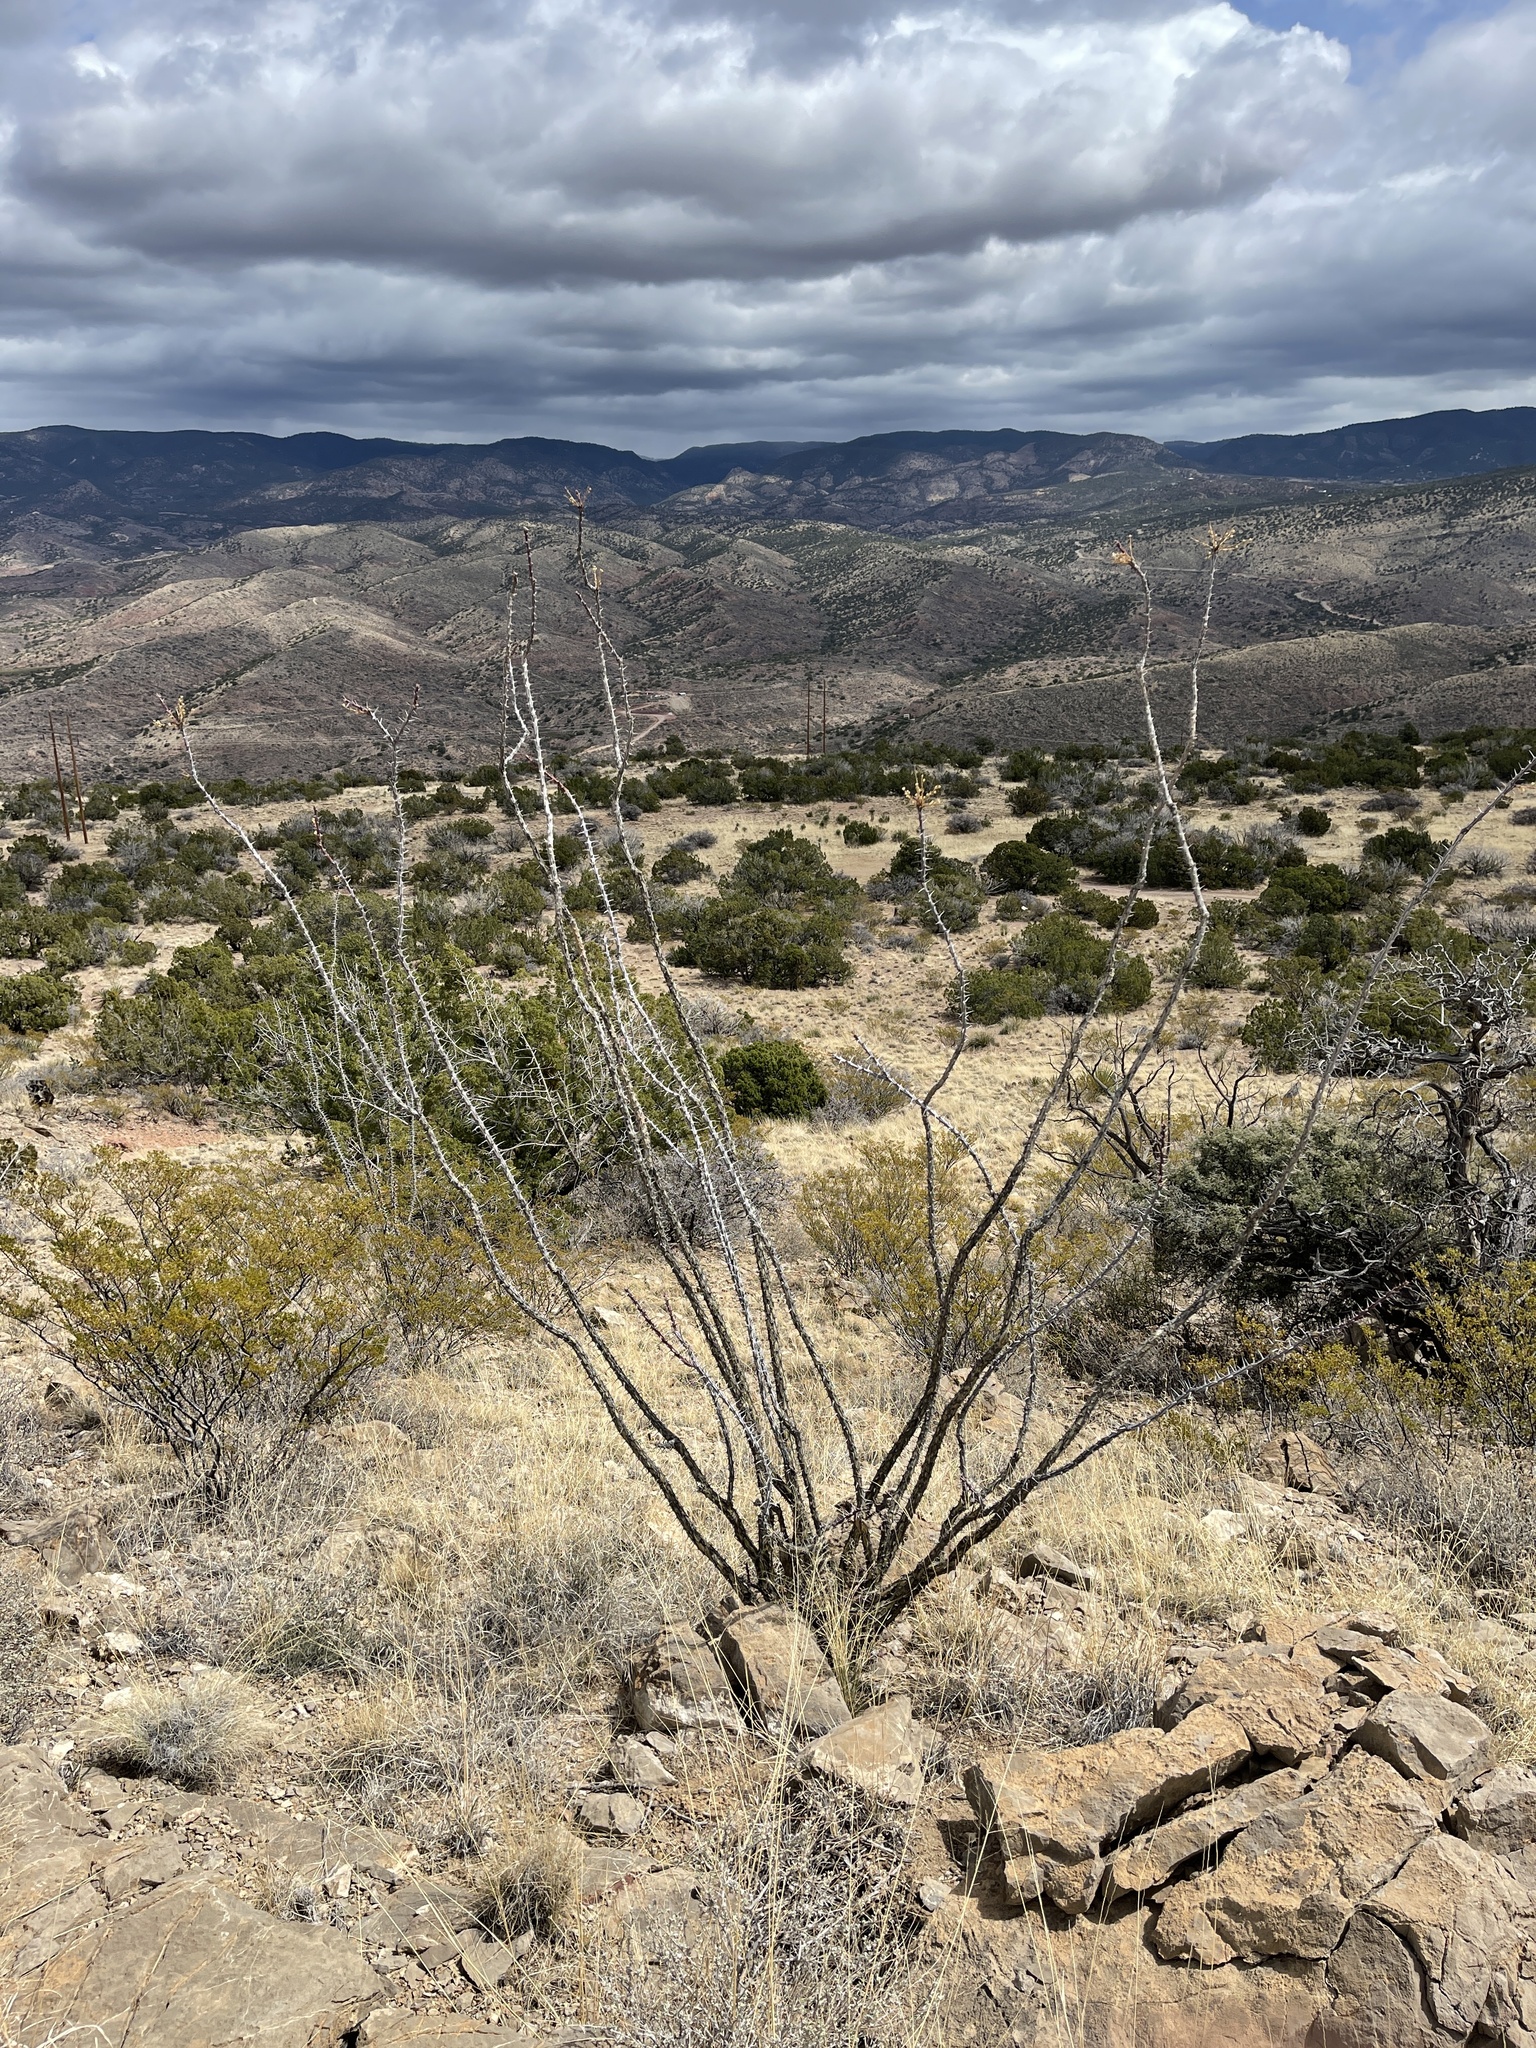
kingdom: Plantae
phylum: Tracheophyta
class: Magnoliopsida
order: Ericales
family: Fouquieriaceae
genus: Fouquieria
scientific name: Fouquieria splendens
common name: Vine-cactus
